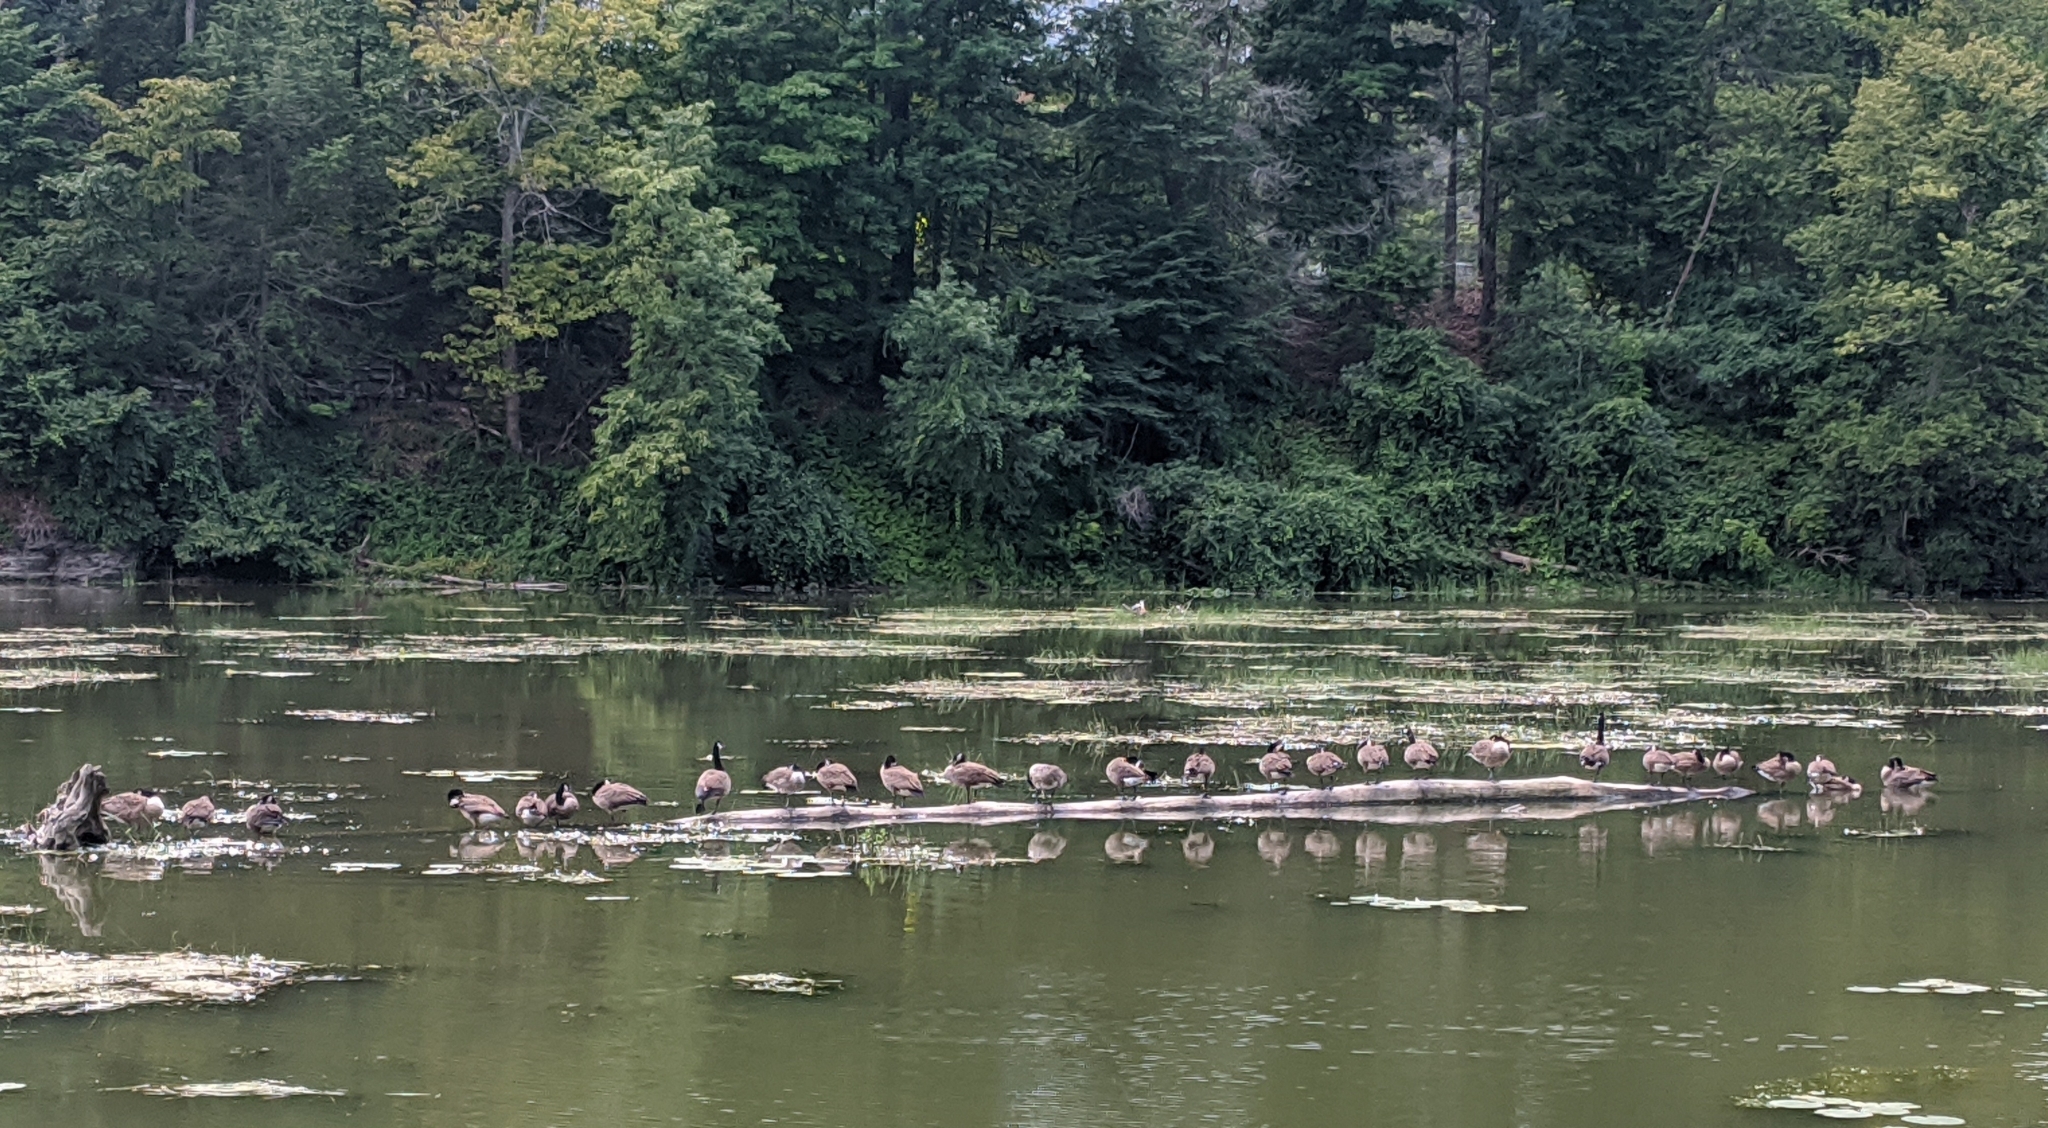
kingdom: Animalia
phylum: Chordata
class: Aves
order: Anseriformes
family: Anatidae
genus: Branta
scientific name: Branta canadensis
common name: Canada goose
